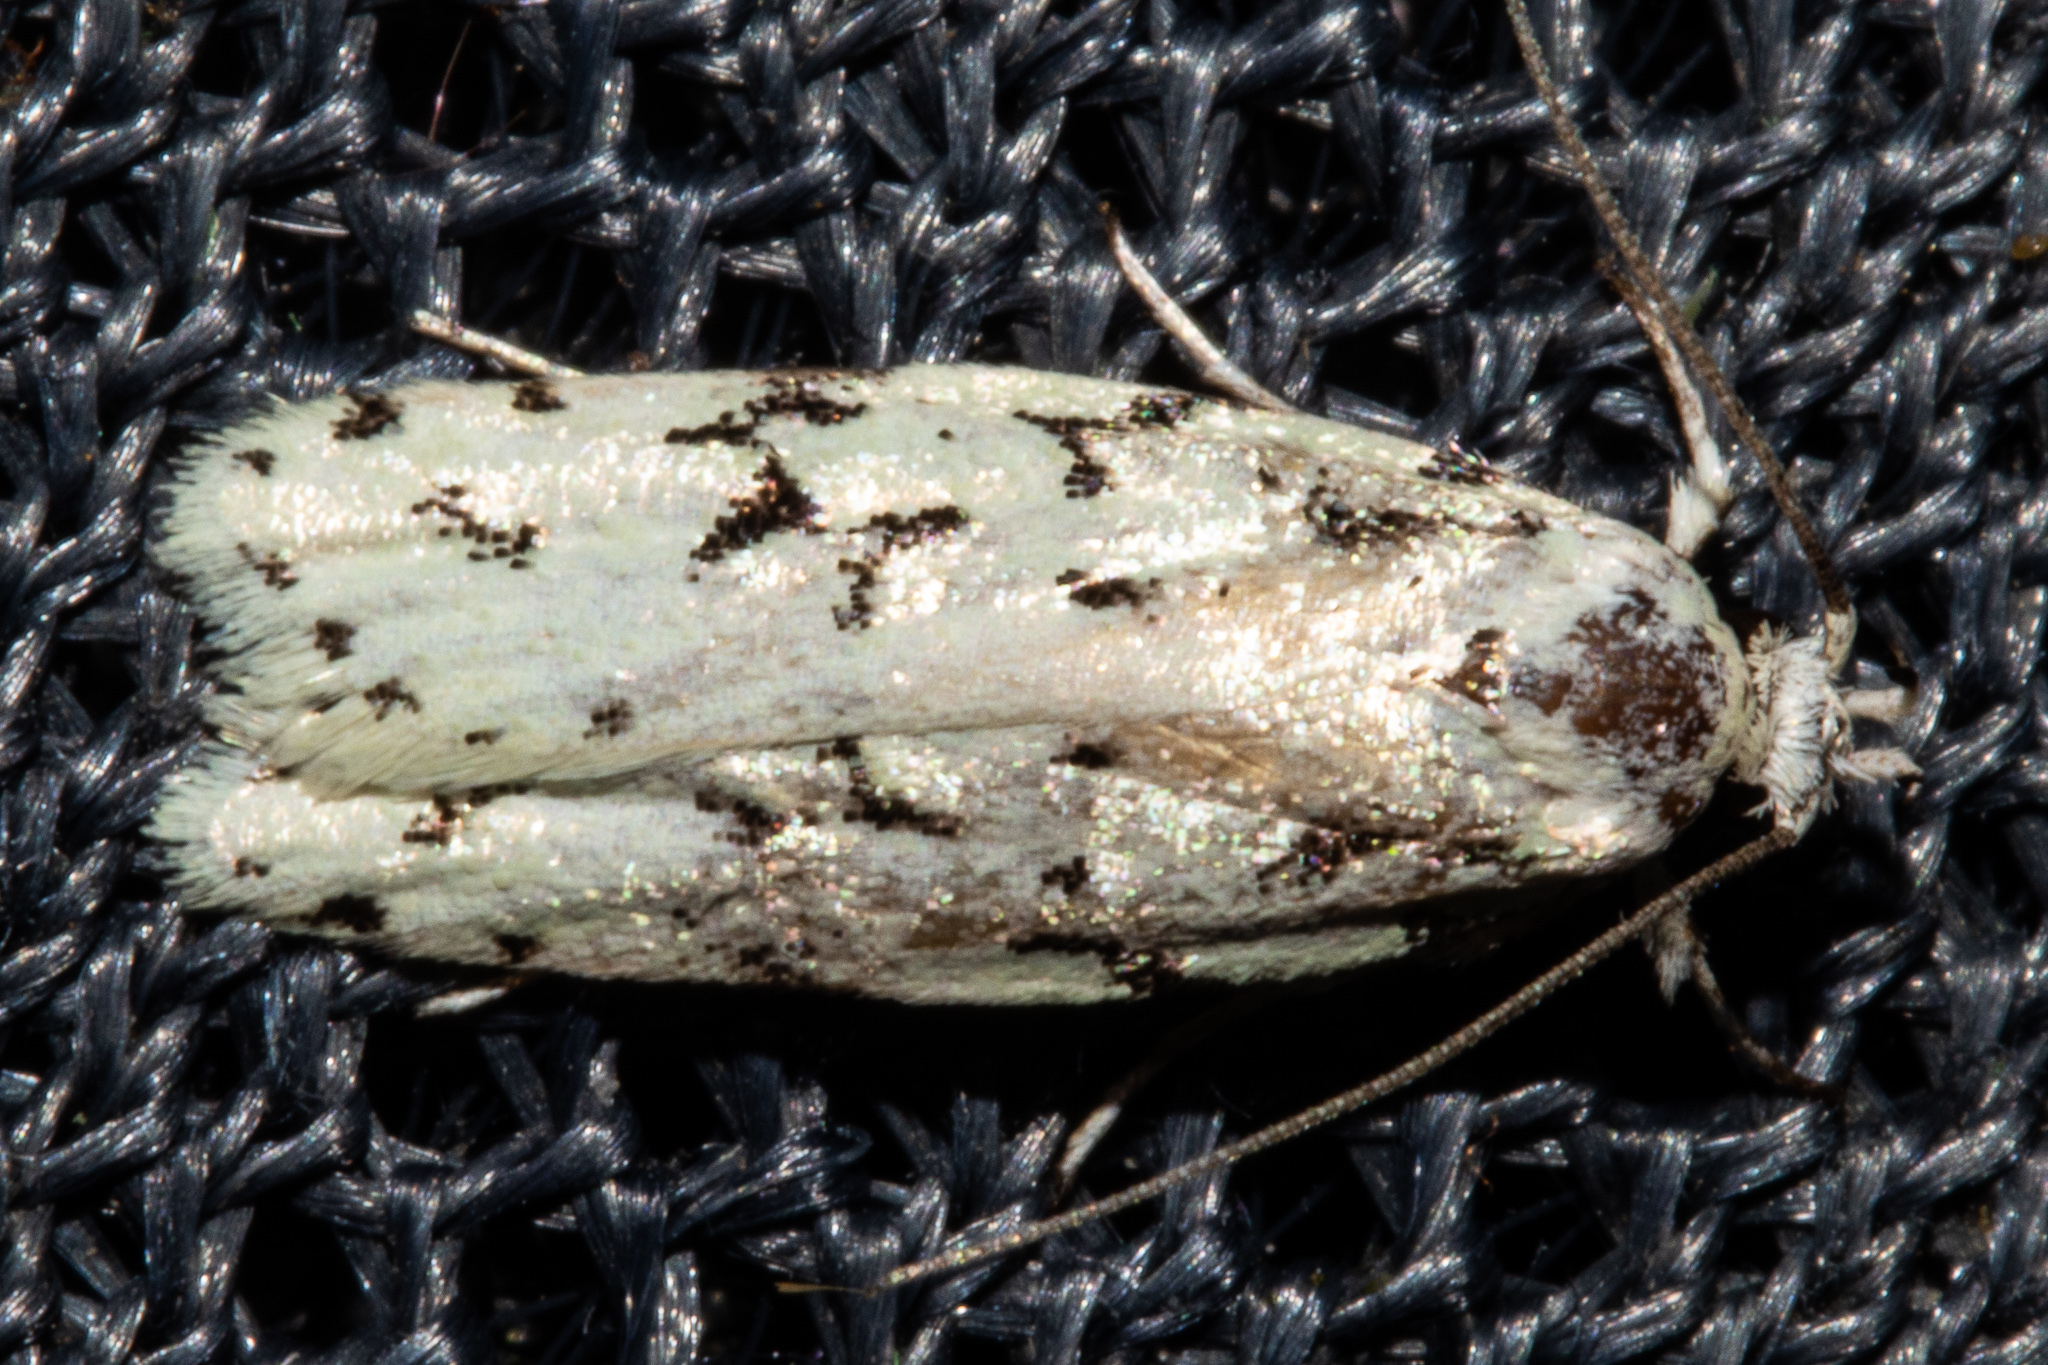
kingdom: Animalia
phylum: Arthropoda
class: Insecta
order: Lepidoptera
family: Oecophoridae
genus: Izatha
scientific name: Izatha huttoni
